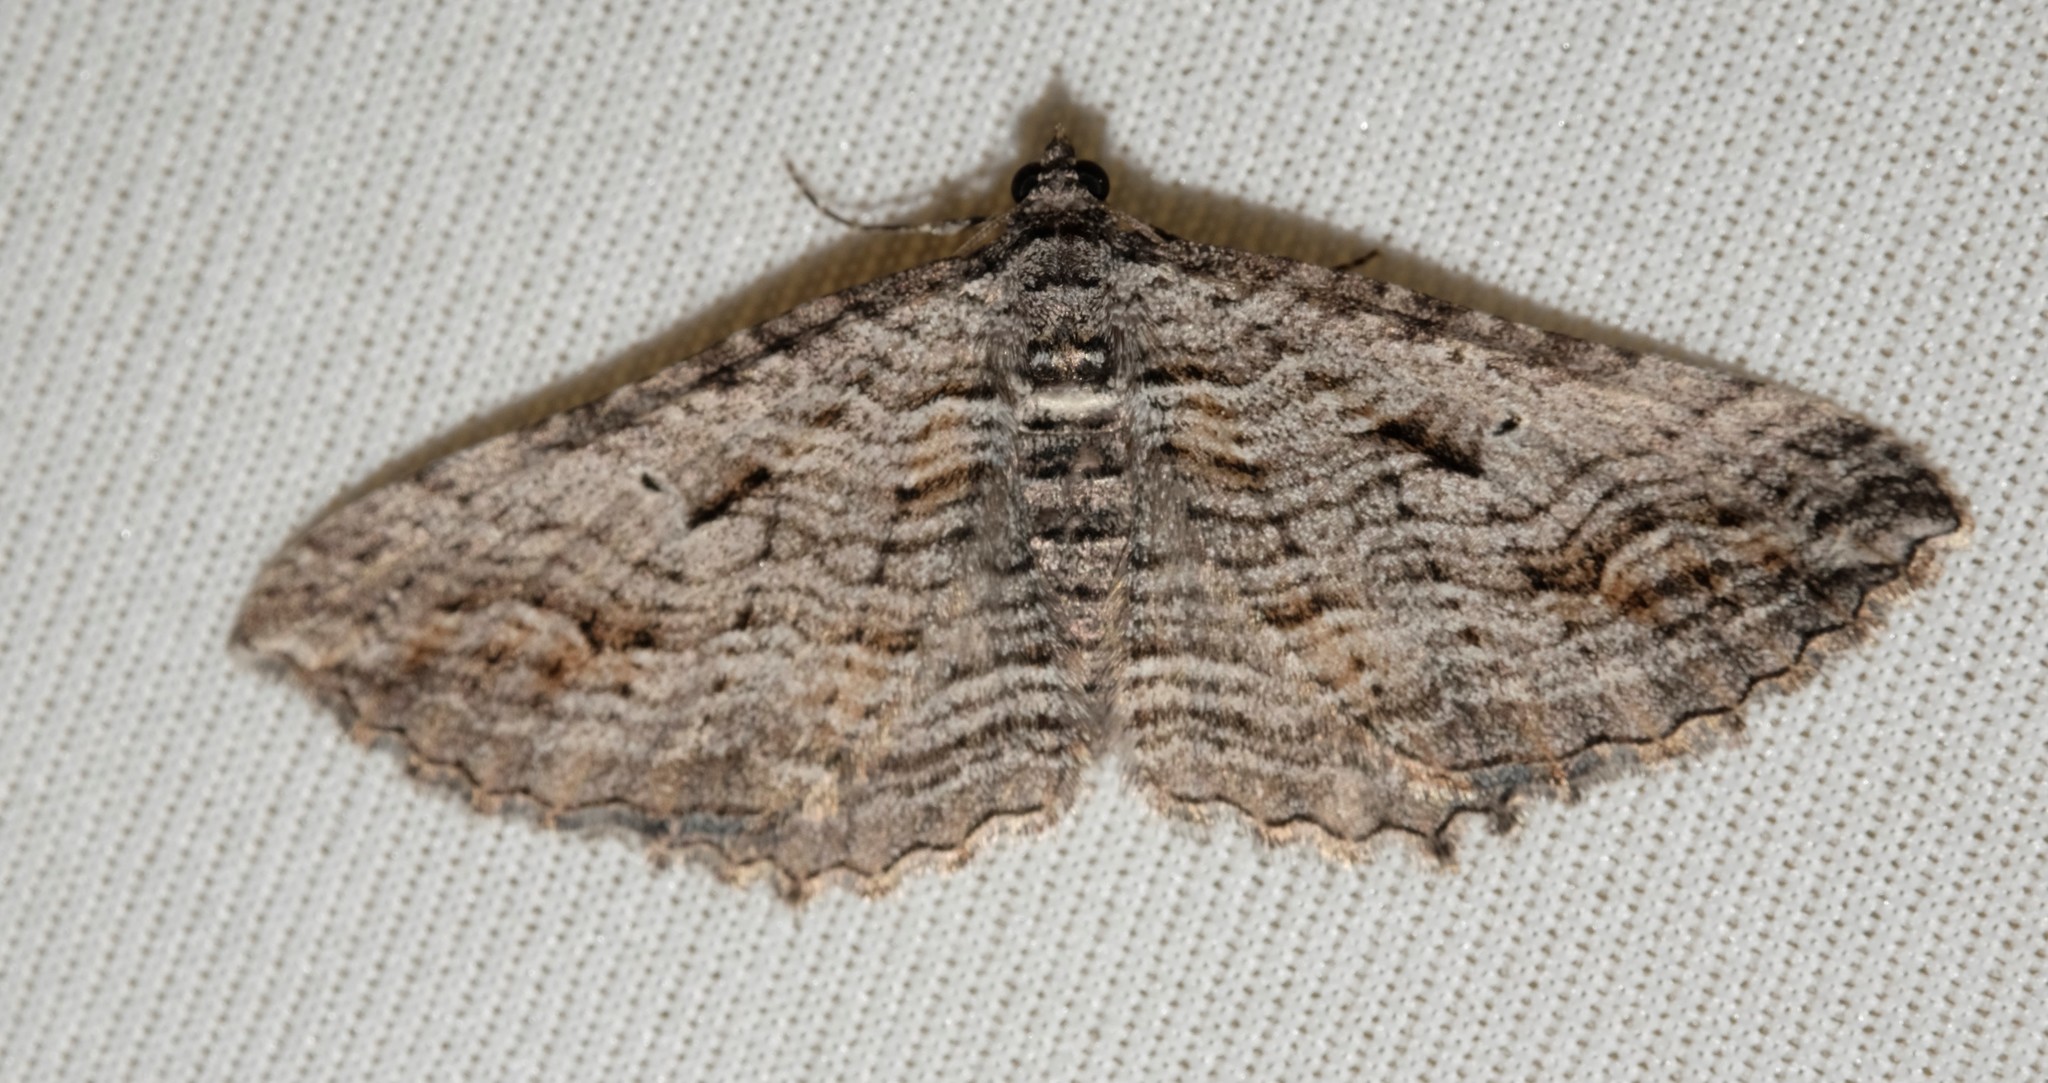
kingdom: Animalia
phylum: Arthropoda
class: Insecta
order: Lepidoptera
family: Geometridae
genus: Chrysolarentia
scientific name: Chrysolarentia severata
